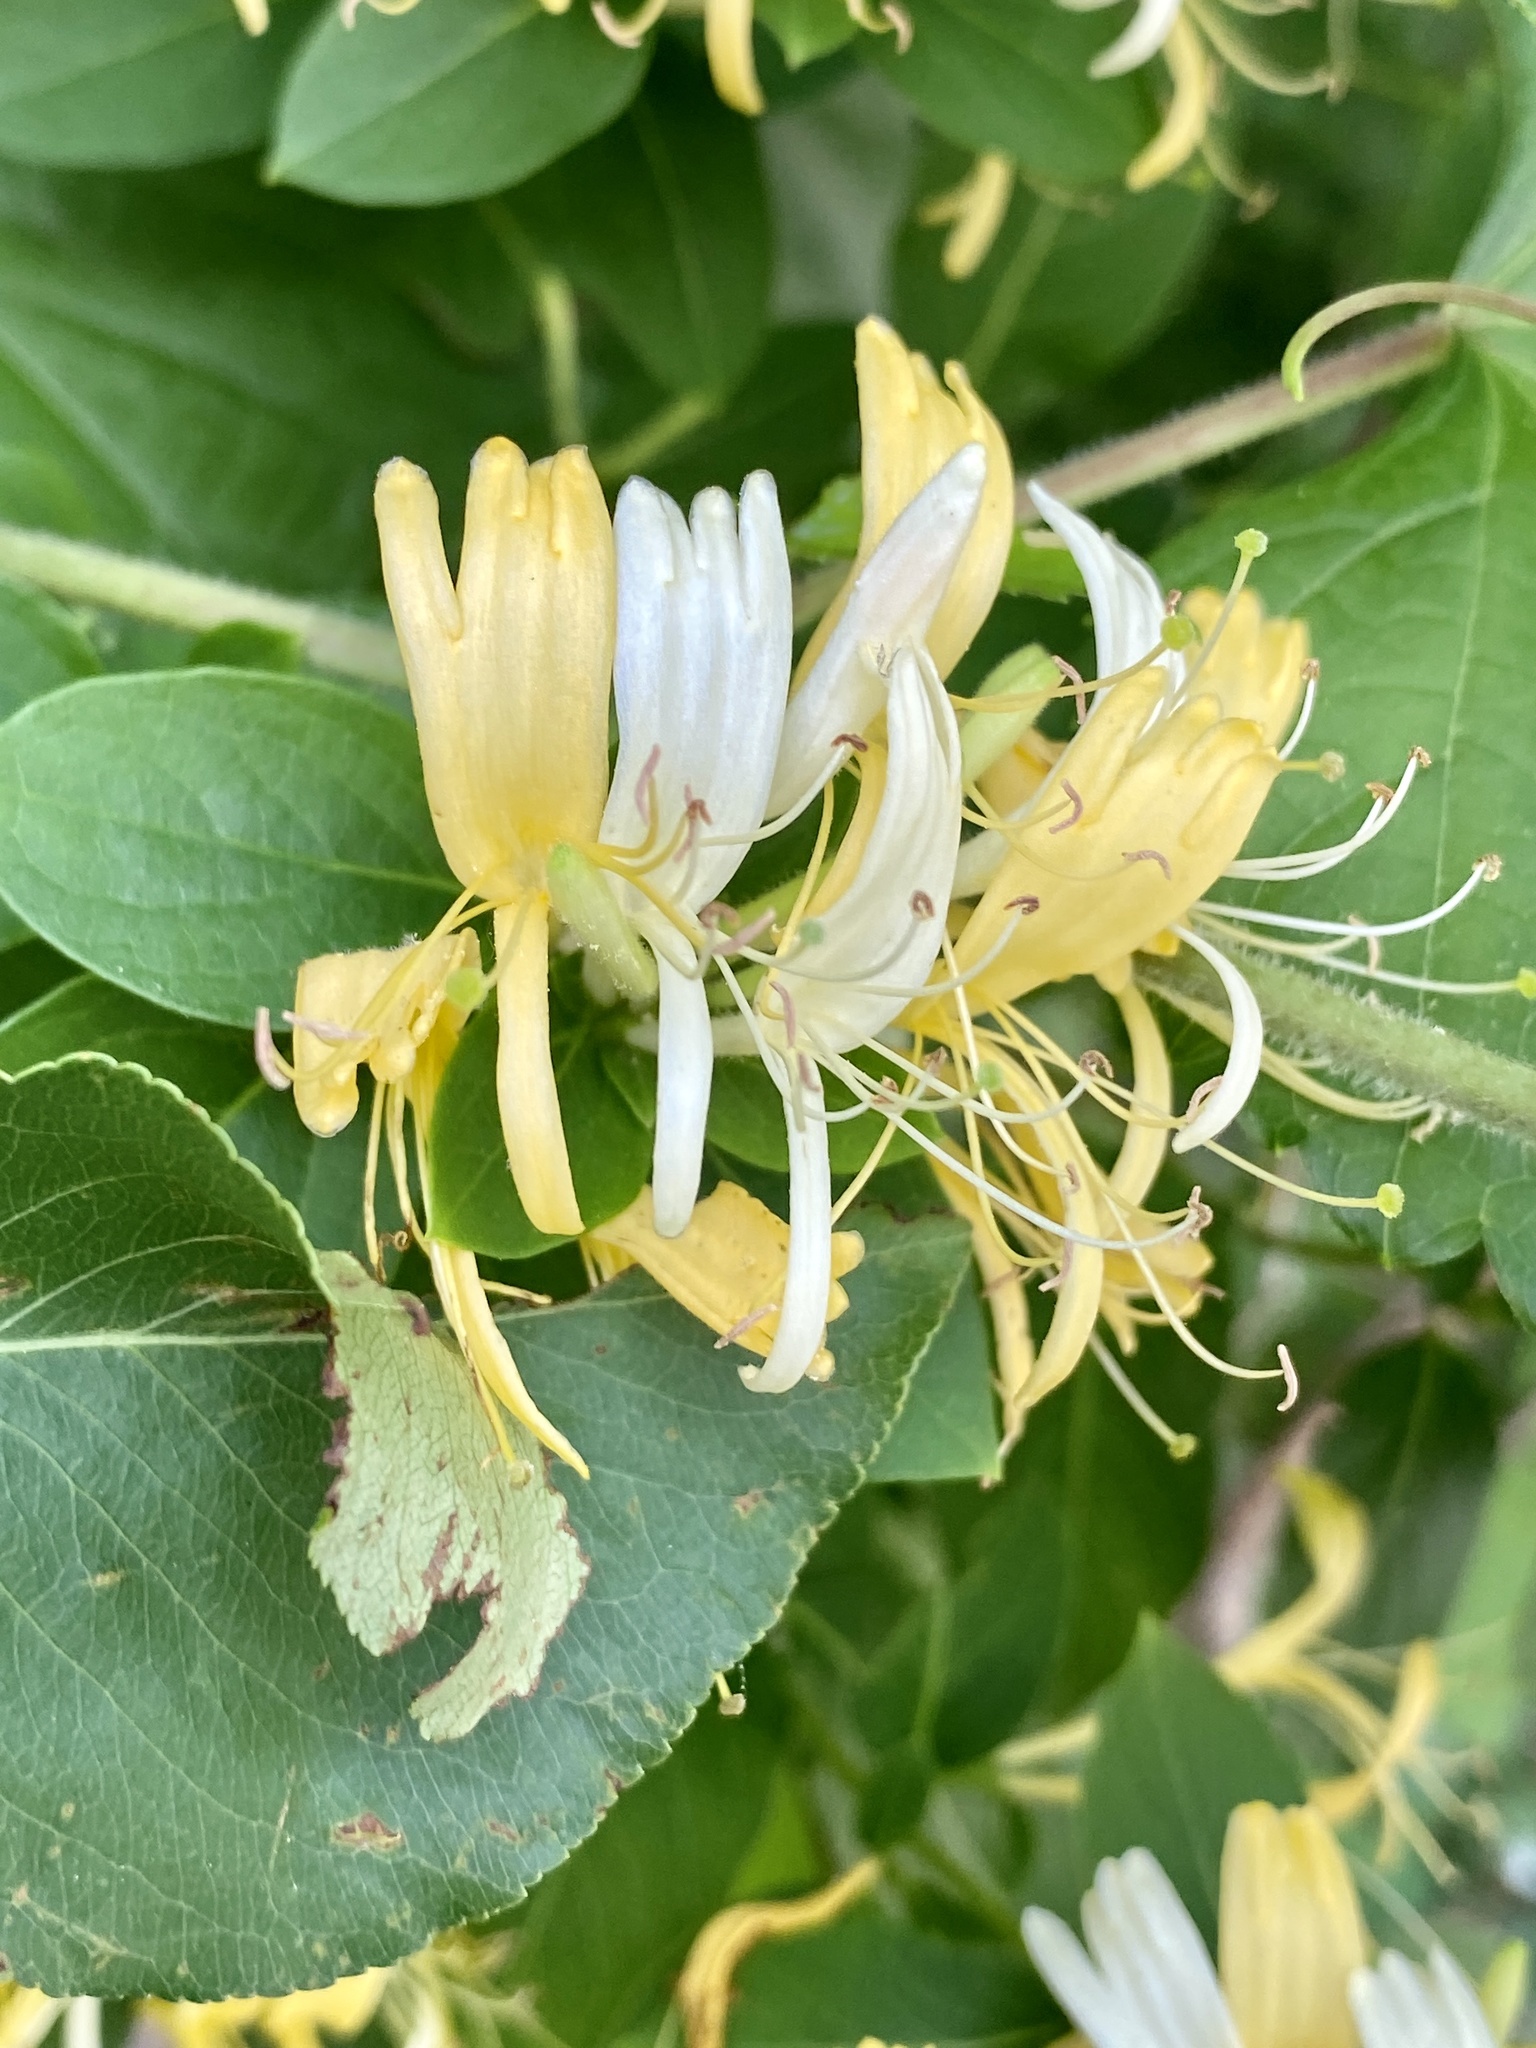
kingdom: Plantae
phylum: Tracheophyta
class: Magnoliopsida
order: Dipsacales
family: Caprifoliaceae
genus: Lonicera
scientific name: Lonicera japonica
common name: Japanese honeysuckle
